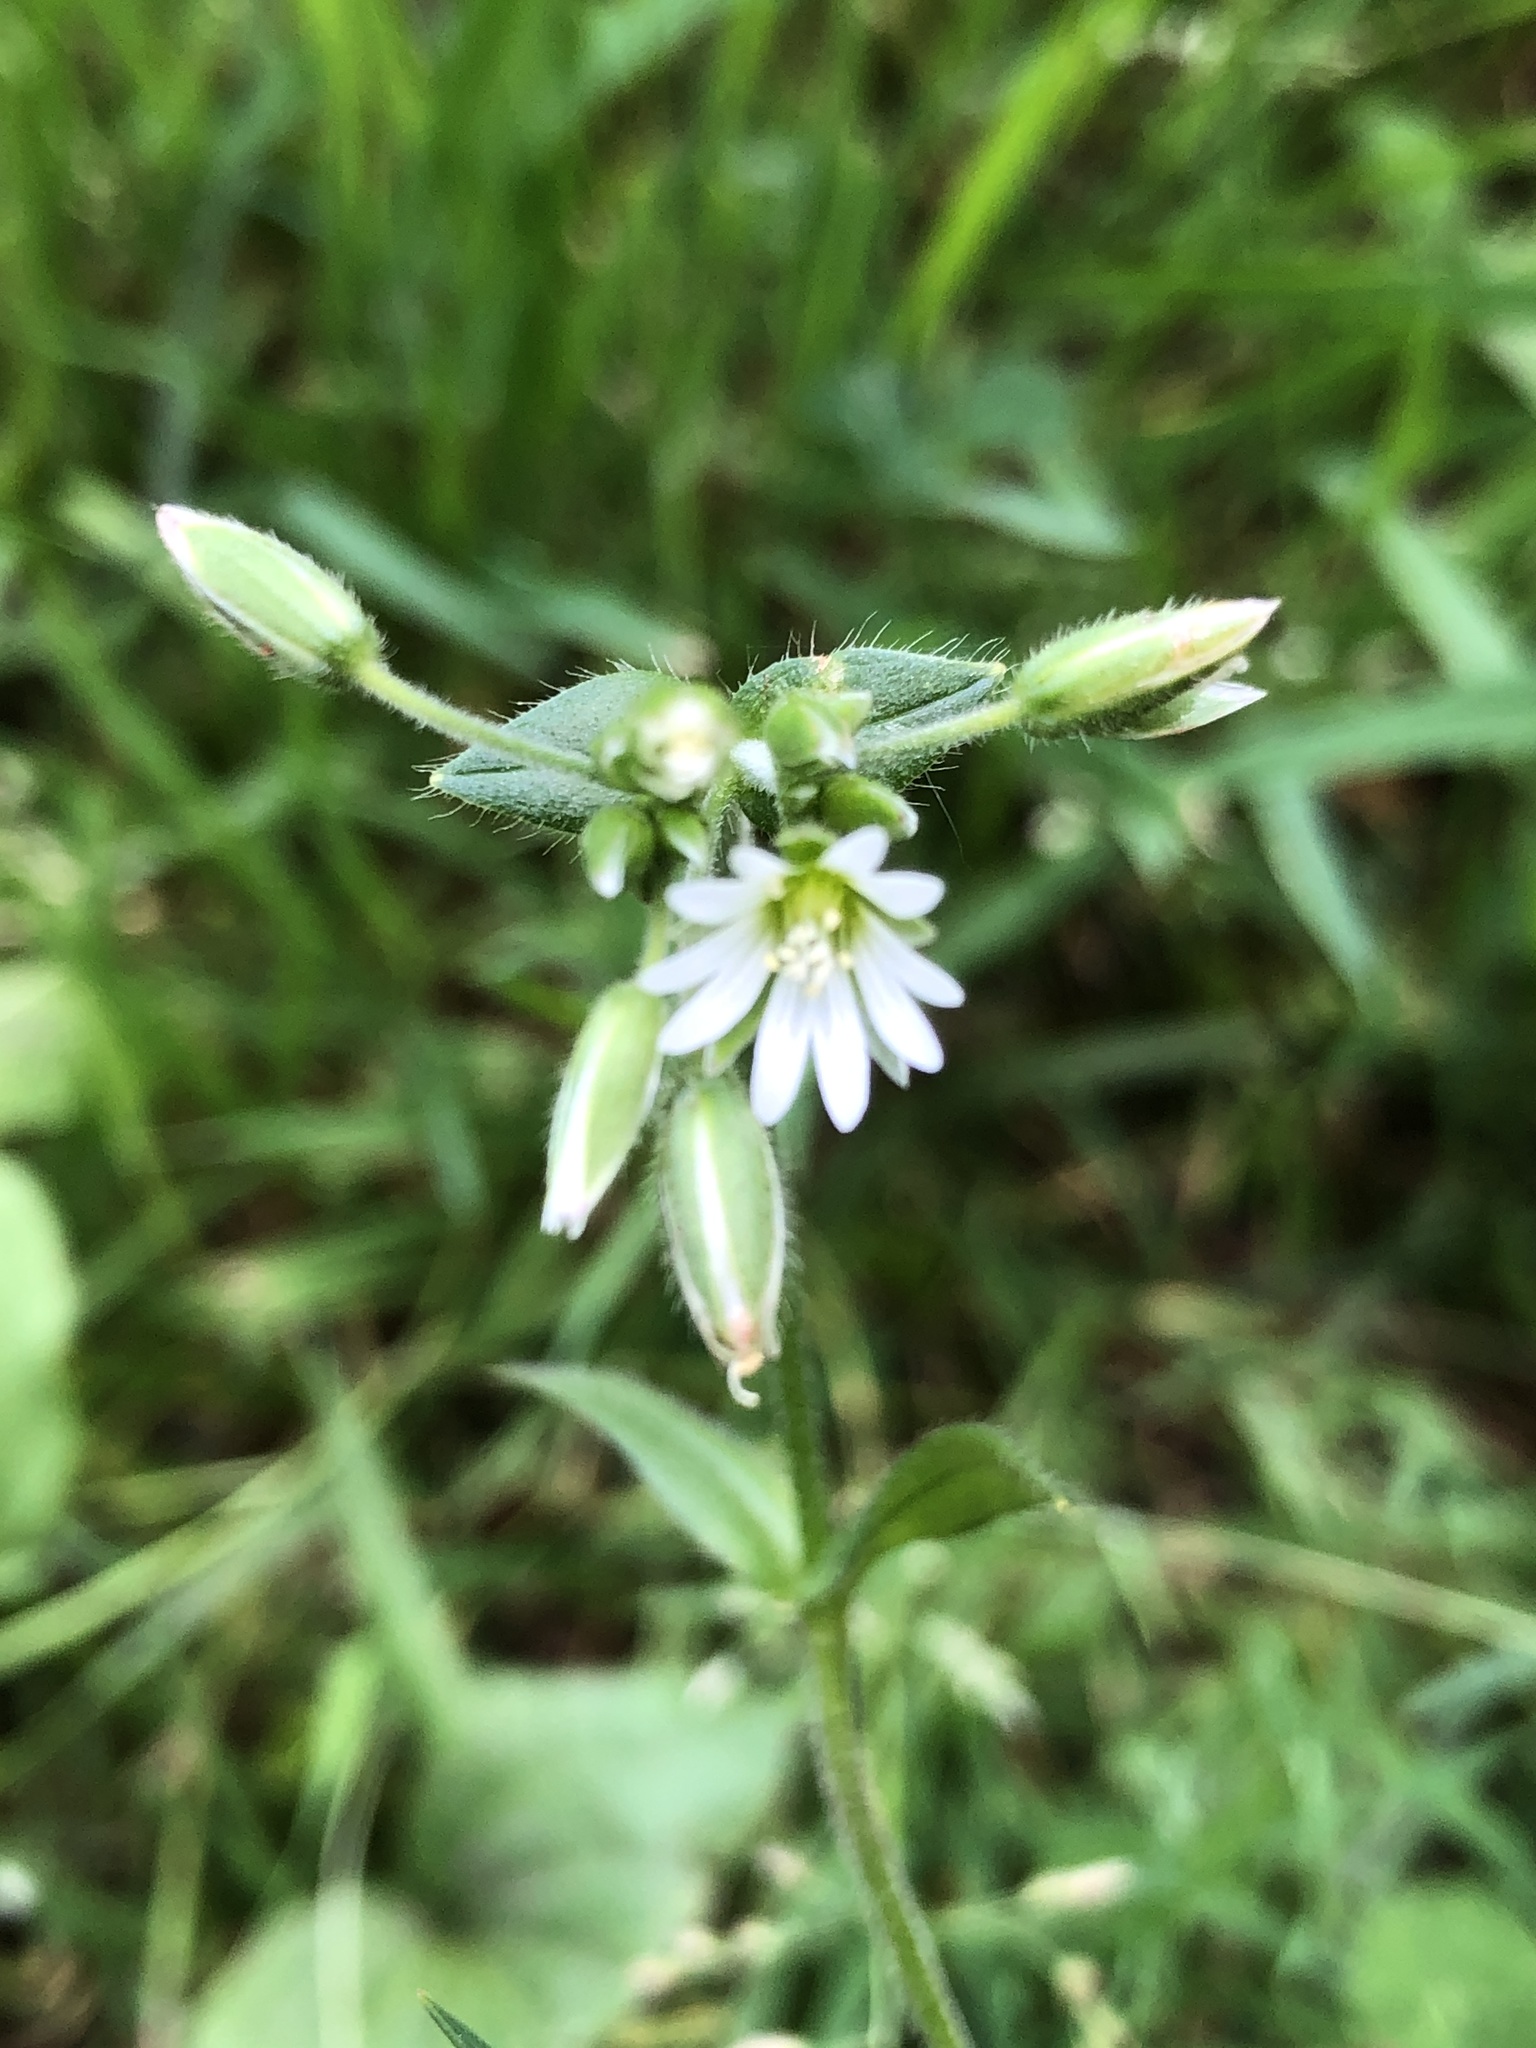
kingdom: Plantae
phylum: Tracheophyta
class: Magnoliopsida
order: Caryophyllales
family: Caryophyllaceae
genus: Cerastium
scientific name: Cerastium holosteoides
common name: Big chickweed
